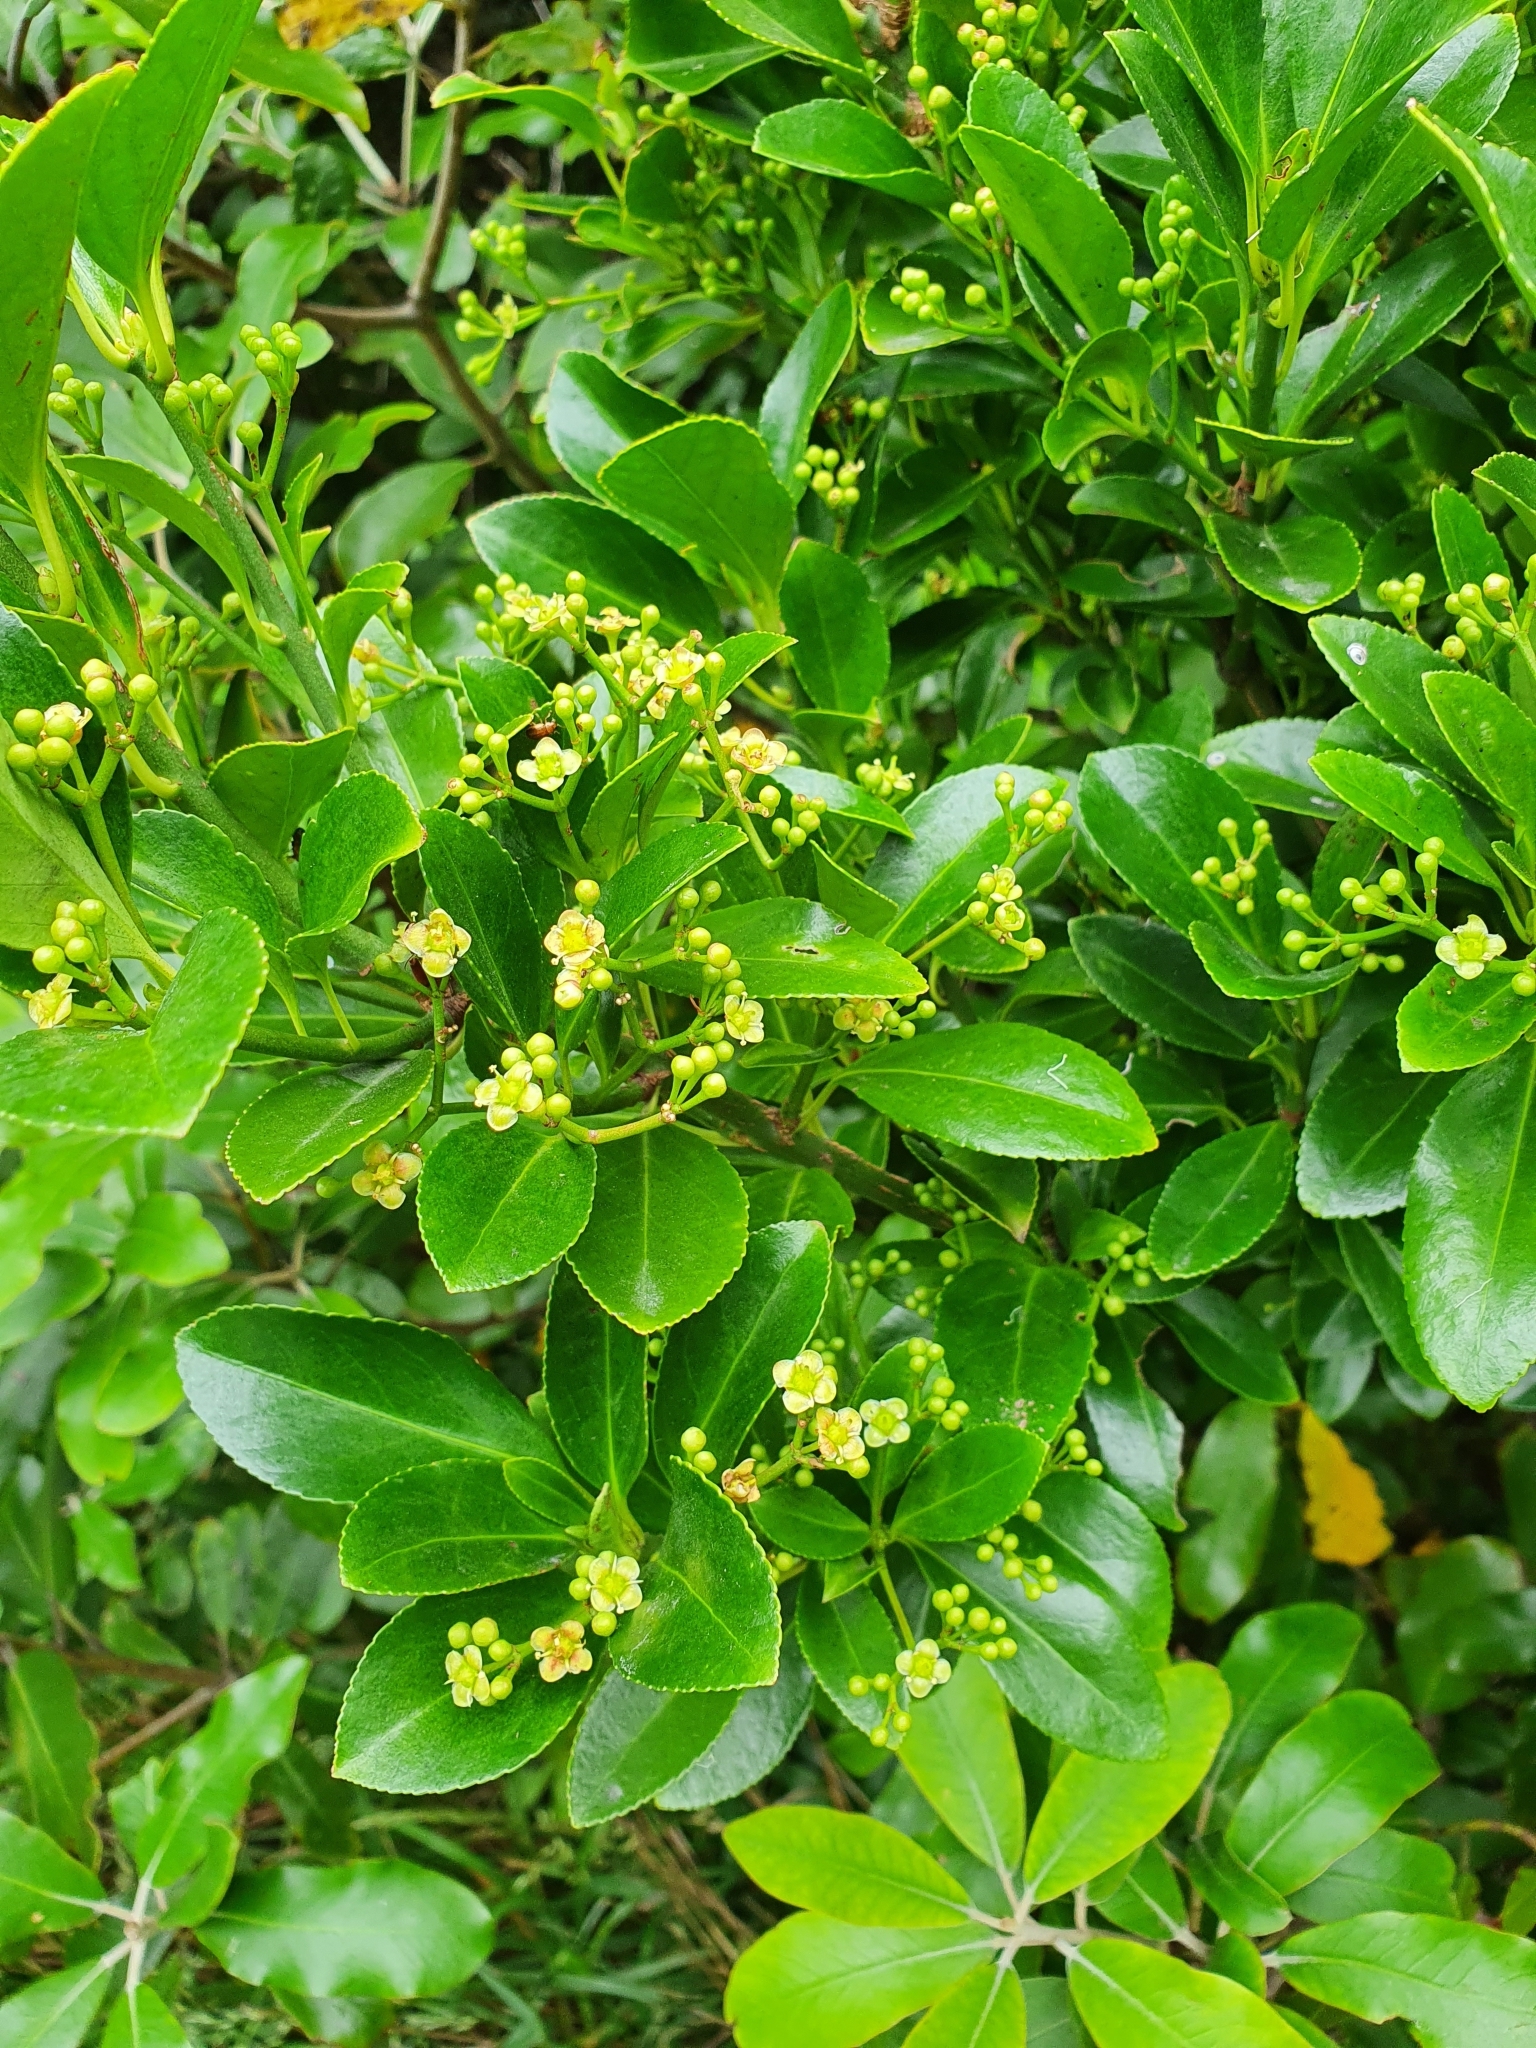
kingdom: Plantae
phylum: Tracheophyta
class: Magnoliopsida
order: Celastrales
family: Celastraceae
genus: Euonymus
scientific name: Euonymus japonicus
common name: Japanese spindletree
